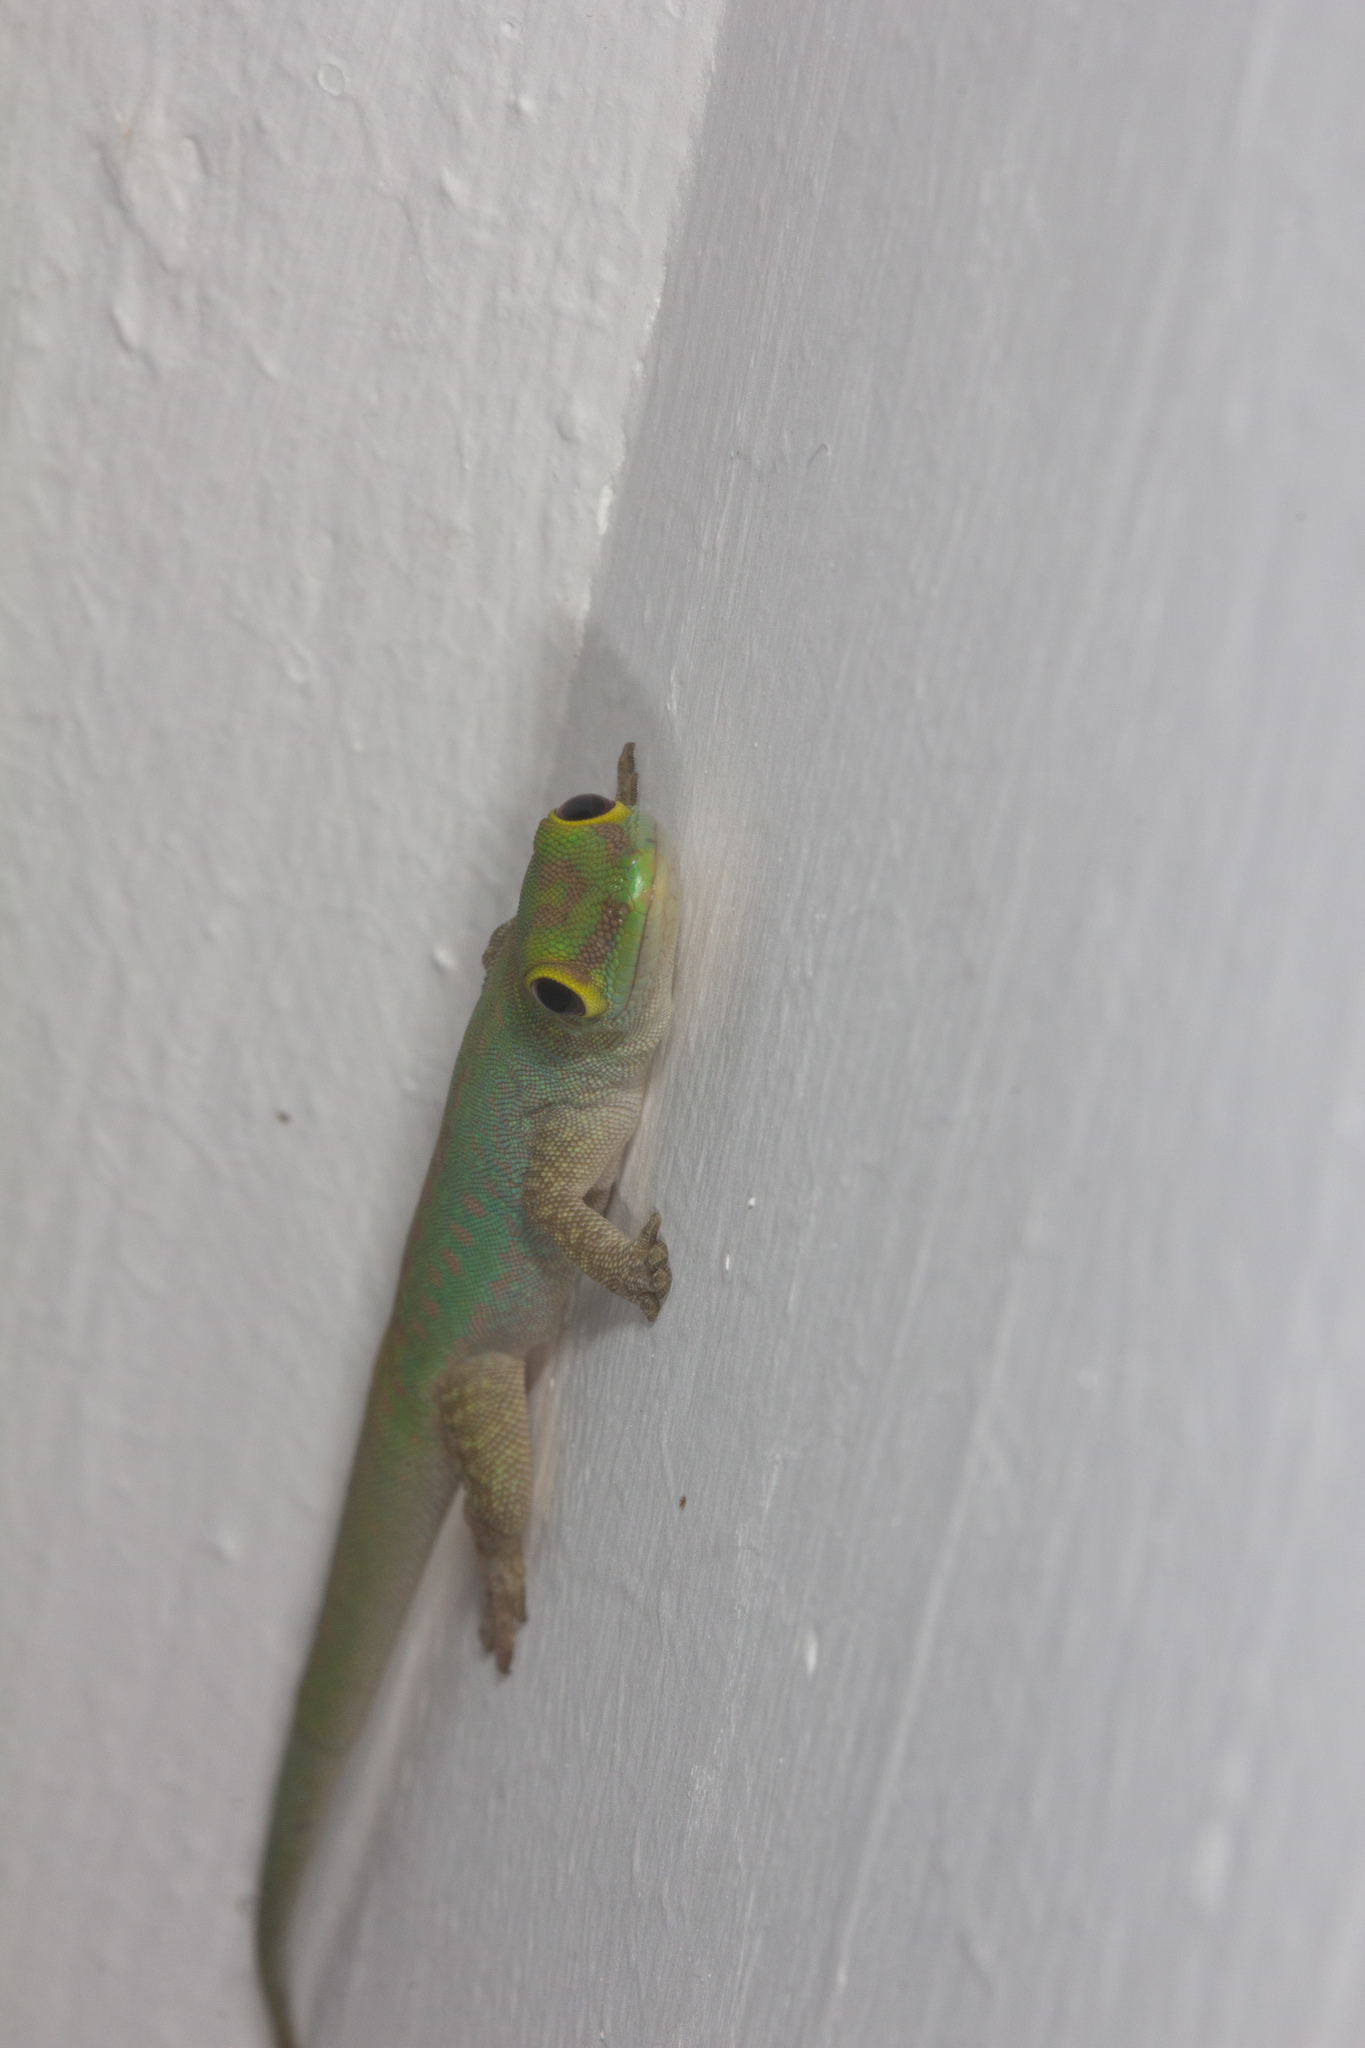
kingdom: Animalia
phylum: Chordata
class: Squamata
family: Gekkonidae
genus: Phelsuma
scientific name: Phelsuma sundbergi
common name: Seychelles giant day gecko
